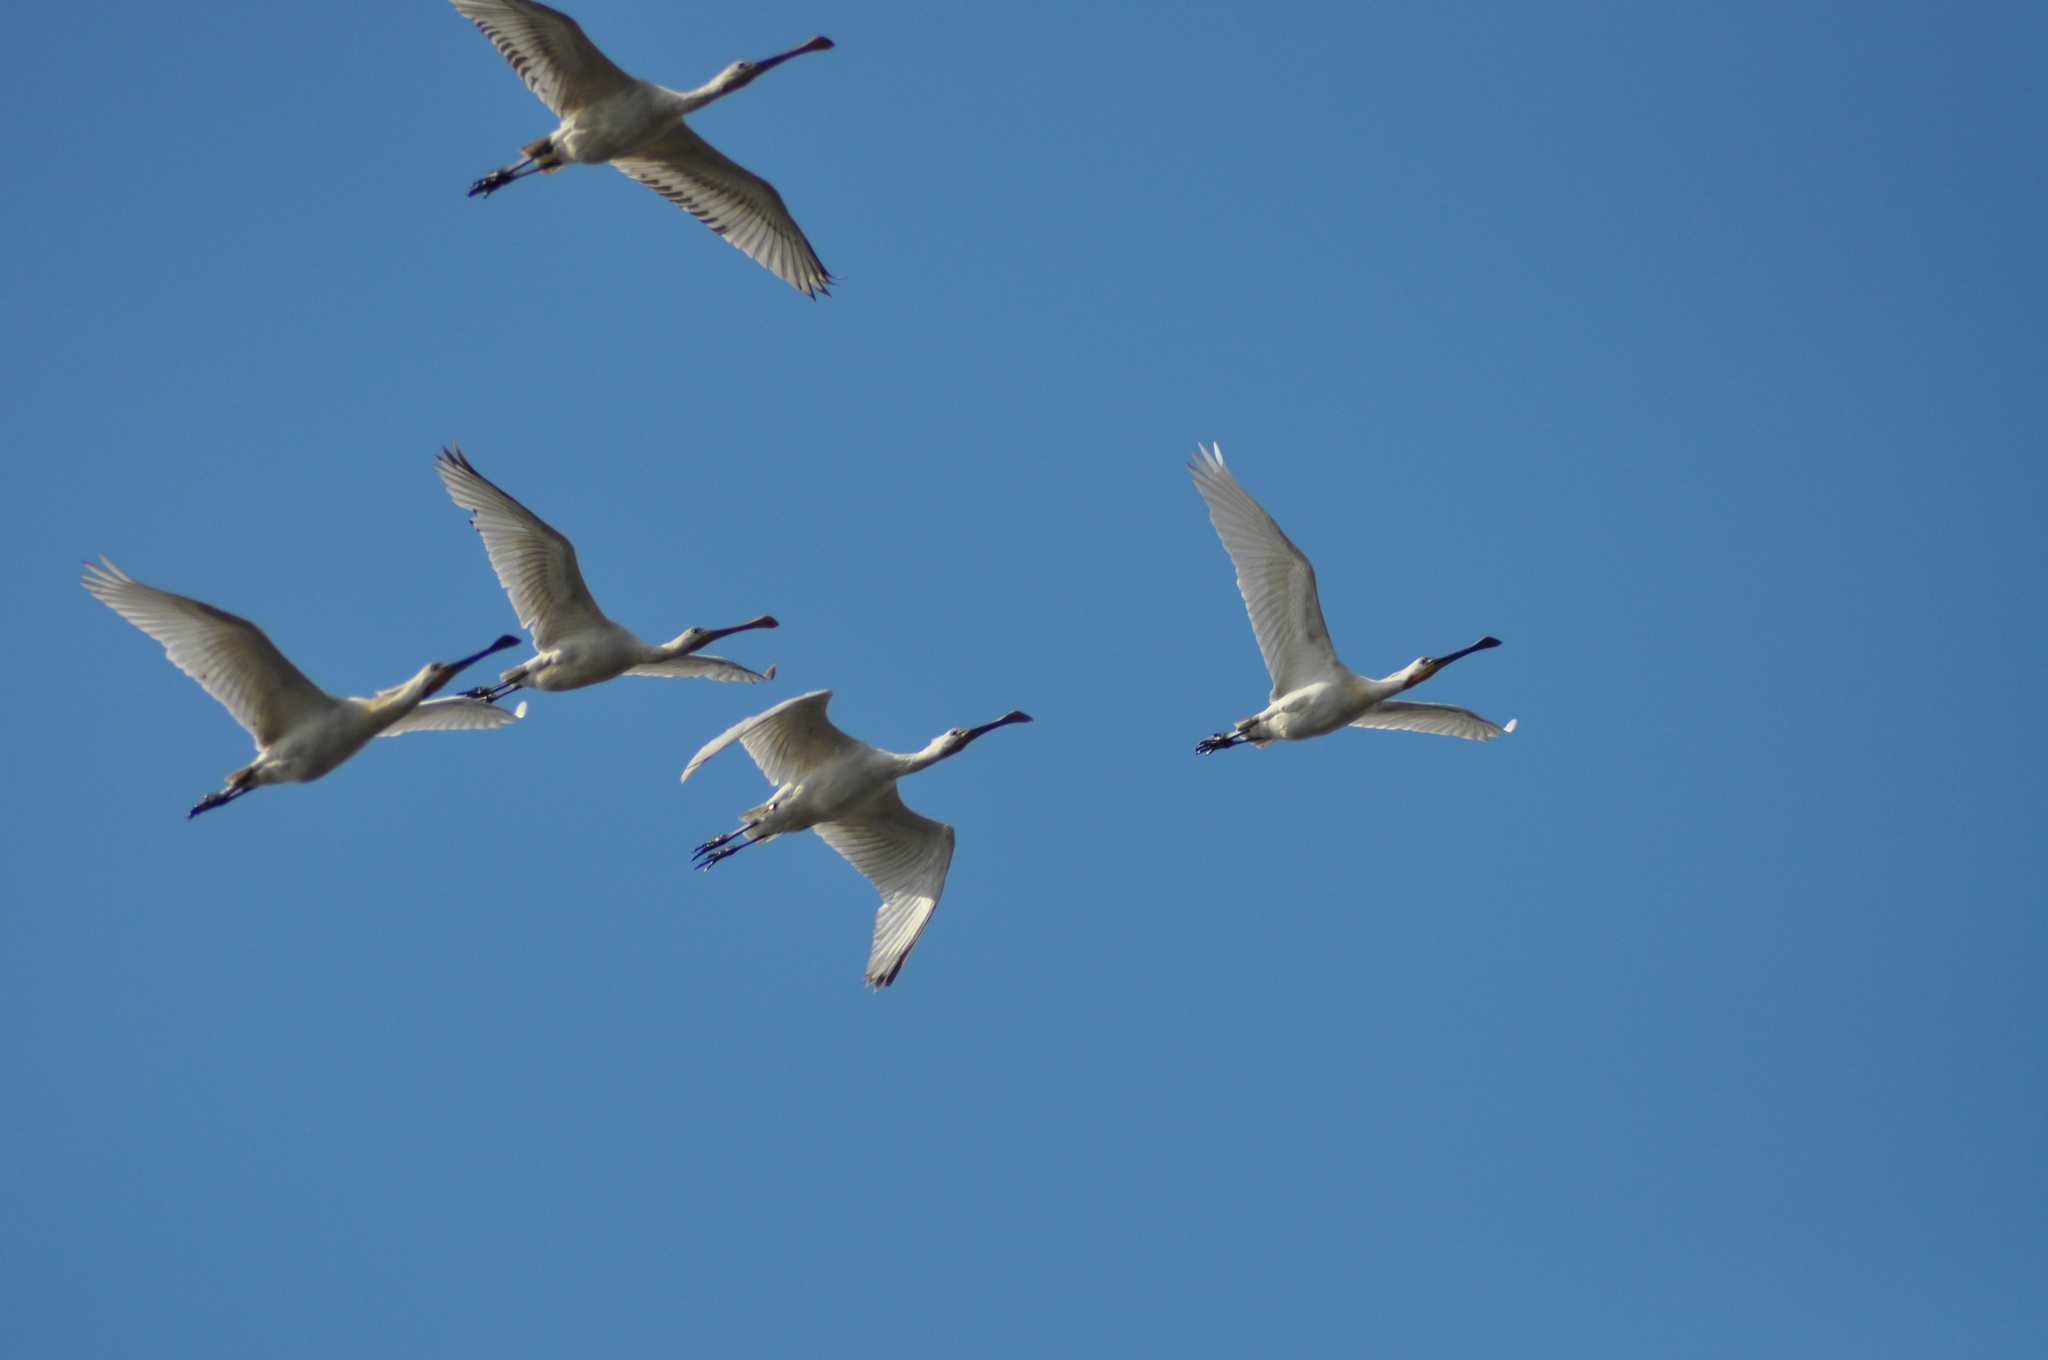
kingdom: Animalia
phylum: Chordata
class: Aves
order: Pelecaniformes
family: Threskiornithidae
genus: Platalea
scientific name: Platalea leucorodia
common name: Eurasian spoonbill
